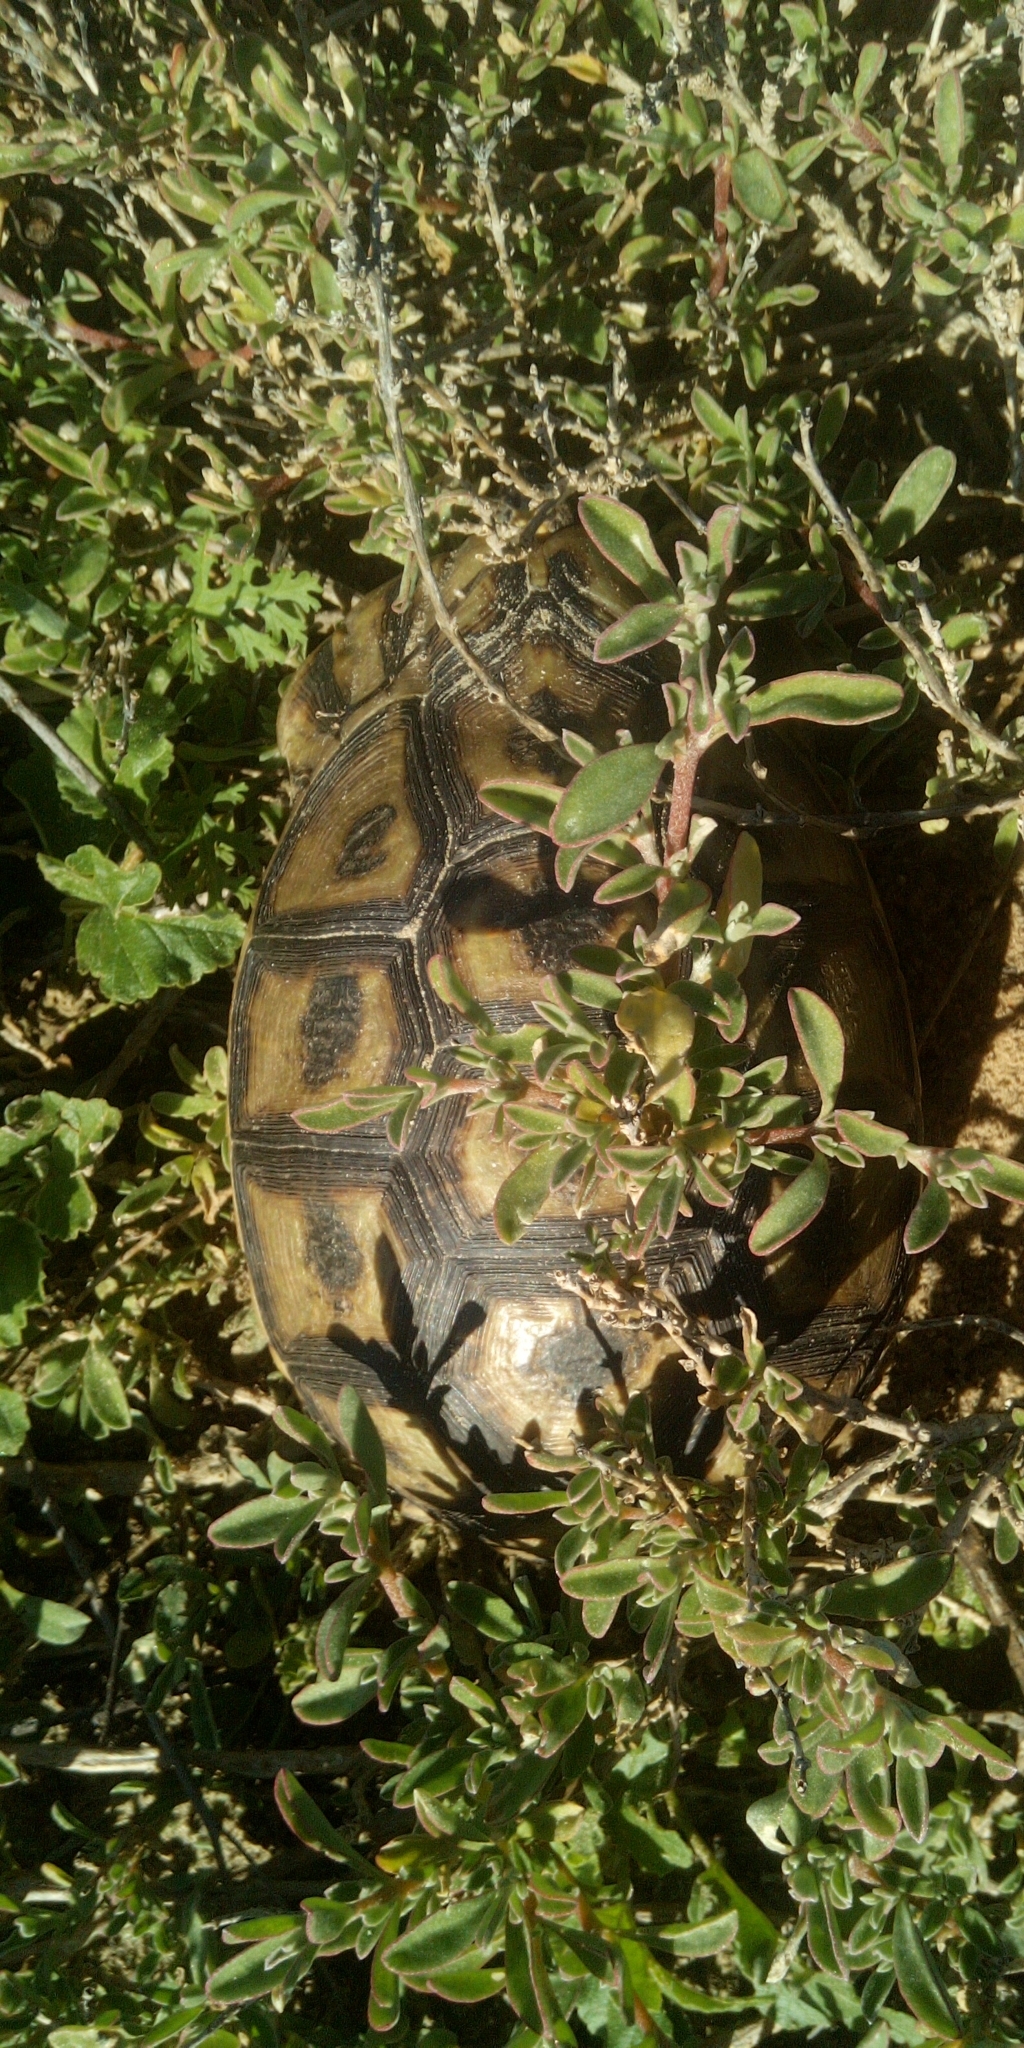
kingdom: Animalia
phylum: Chordata
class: Testudines
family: Testudinidae
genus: Chersina
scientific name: Chersina angulata
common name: South african bowsprit tortoise
